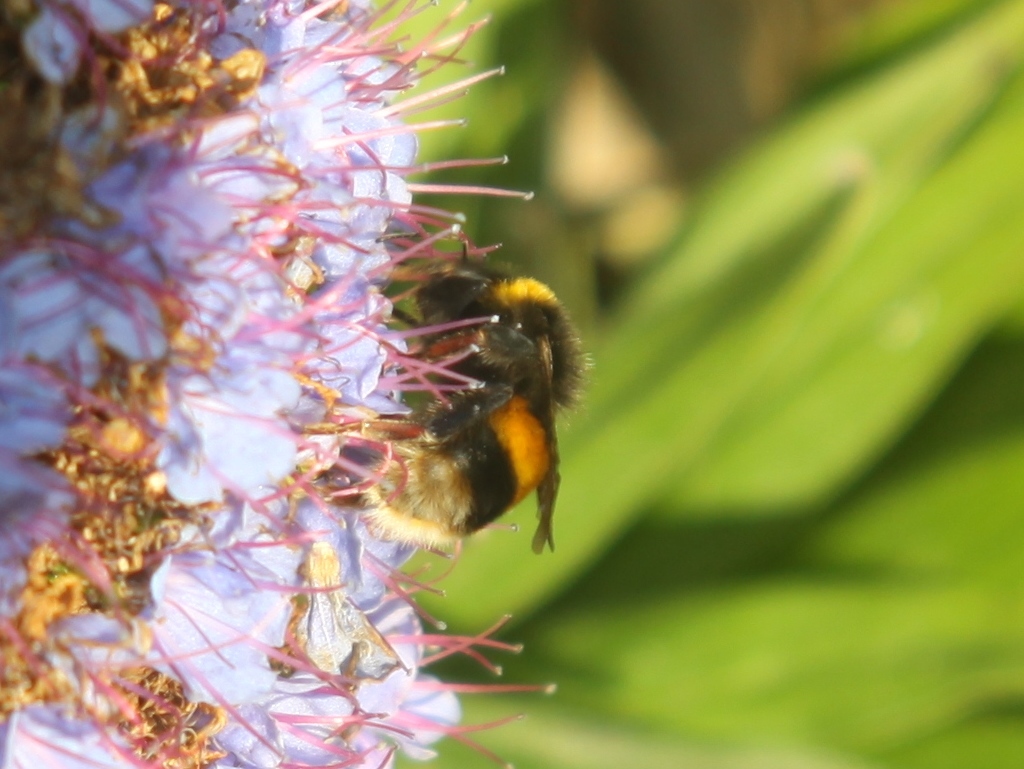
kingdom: Animalia
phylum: Arthropoda
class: Insecta
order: Hymenoptera
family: Apidae
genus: Bombus
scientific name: Bombus terrestris
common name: Buff-tailed bumblebee
